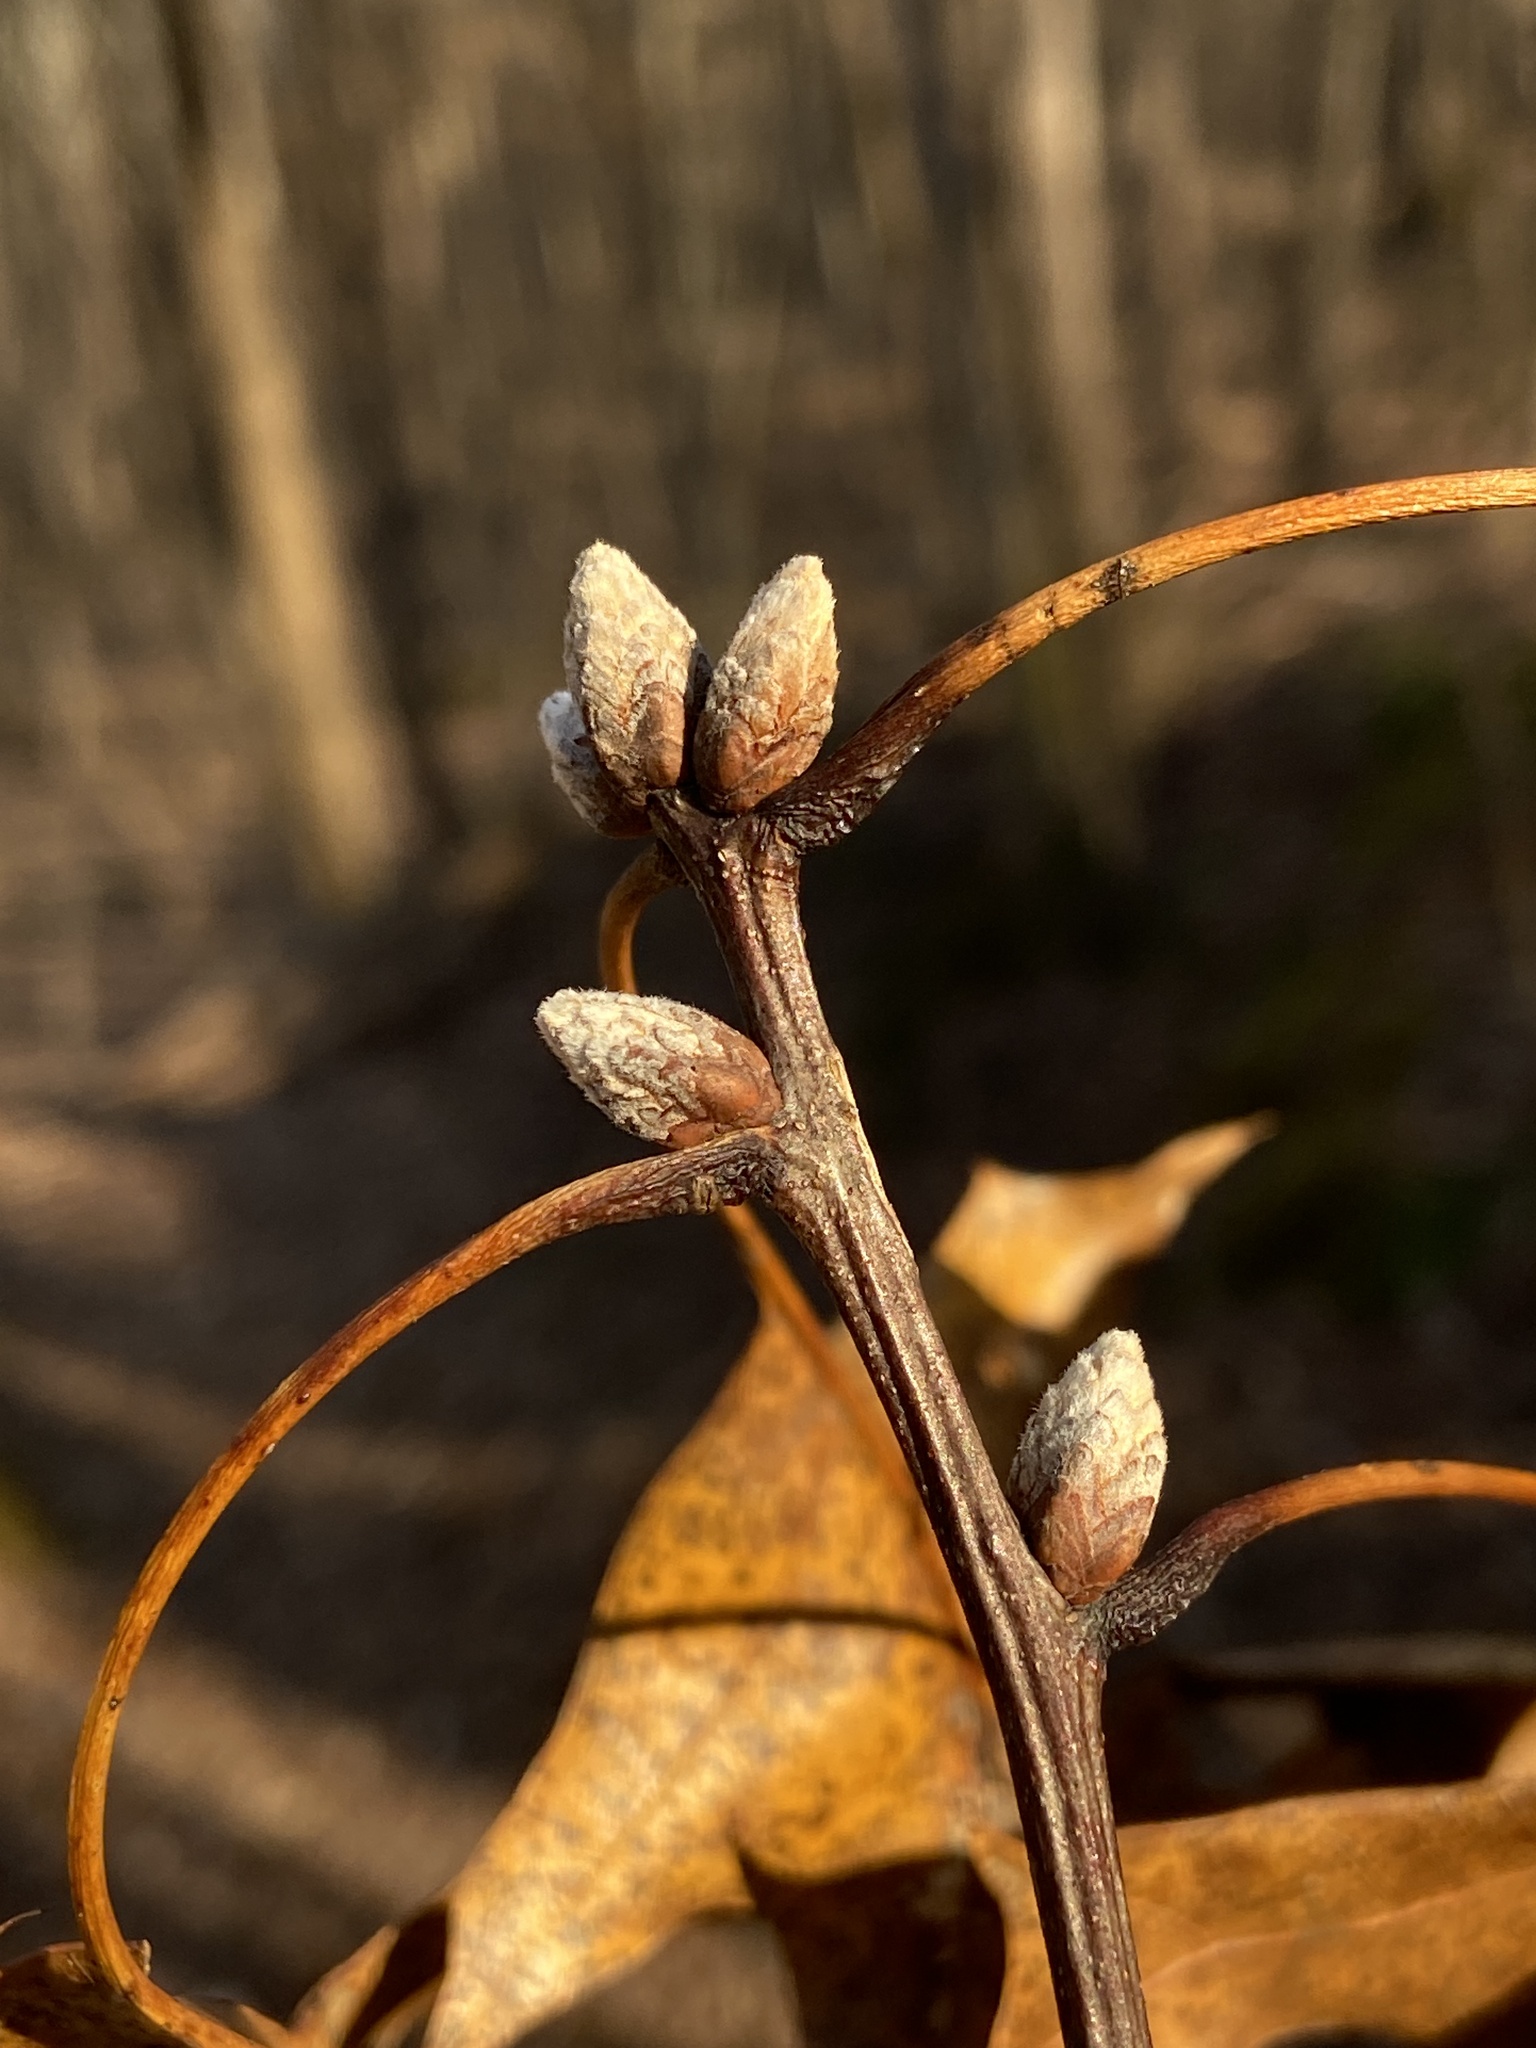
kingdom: Plantae
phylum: Tracheophyta
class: Magnoliopsida
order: Fagales
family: Fagaceae
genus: Quercus
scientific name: Quercus coccinea
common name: Scarlet oak
